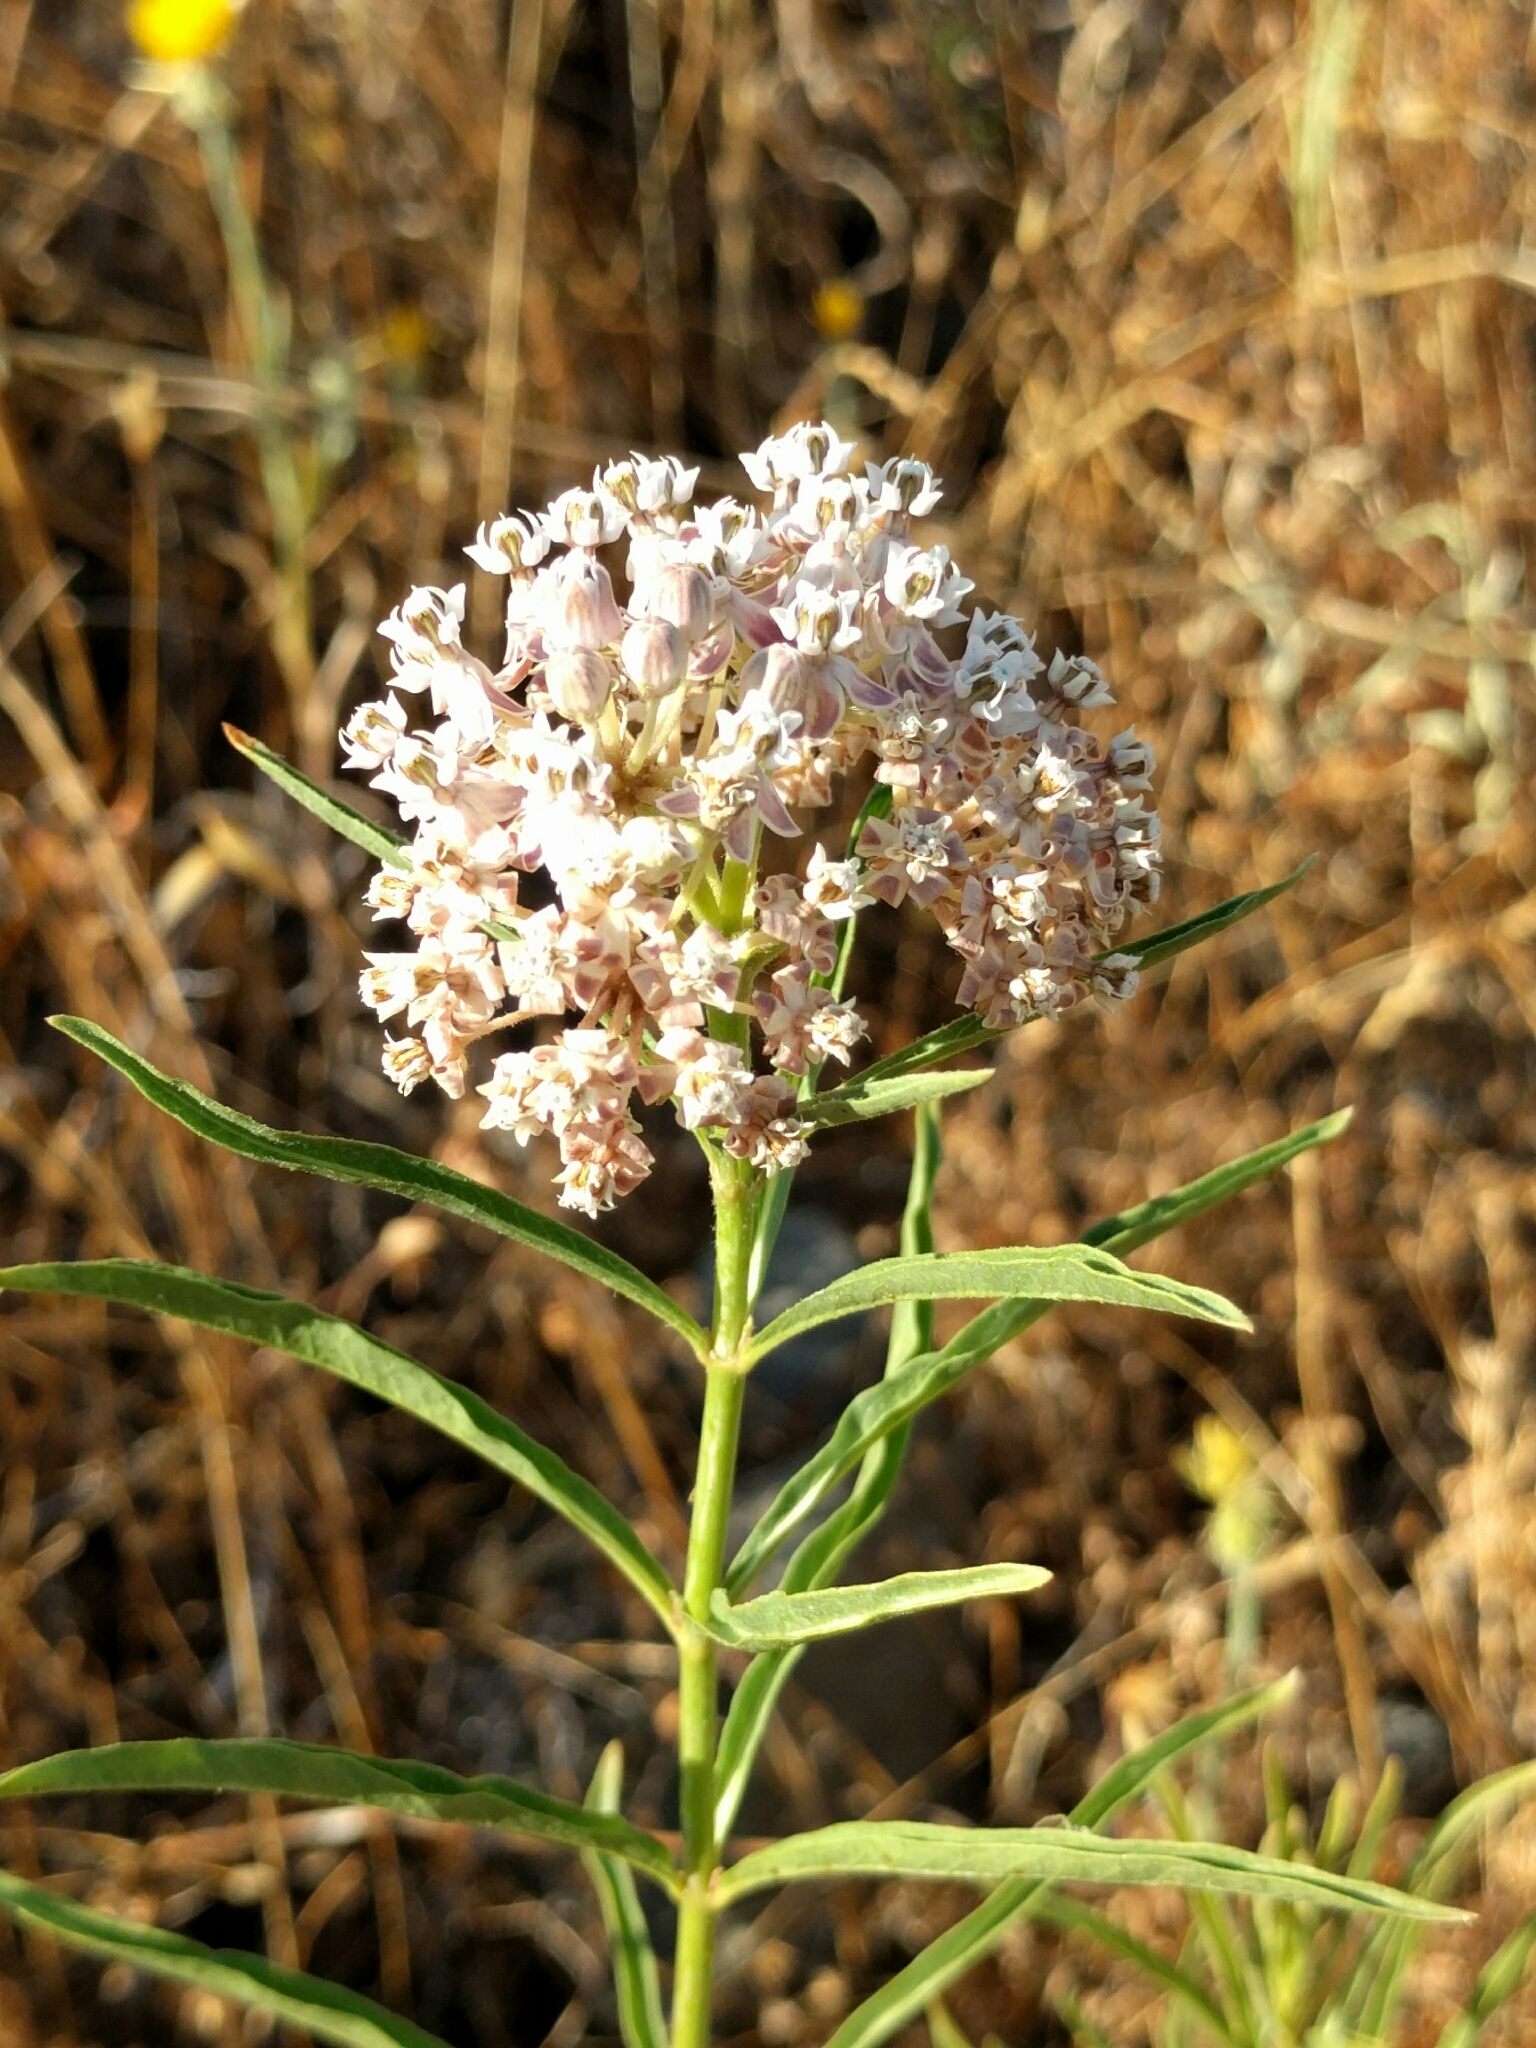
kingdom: Plantae
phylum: Tracheophyta
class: Magnoliopsida
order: Gentianales
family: Apocynaceae
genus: Asclepias
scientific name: Asclepias fascicularis
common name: Mexican milkweed
